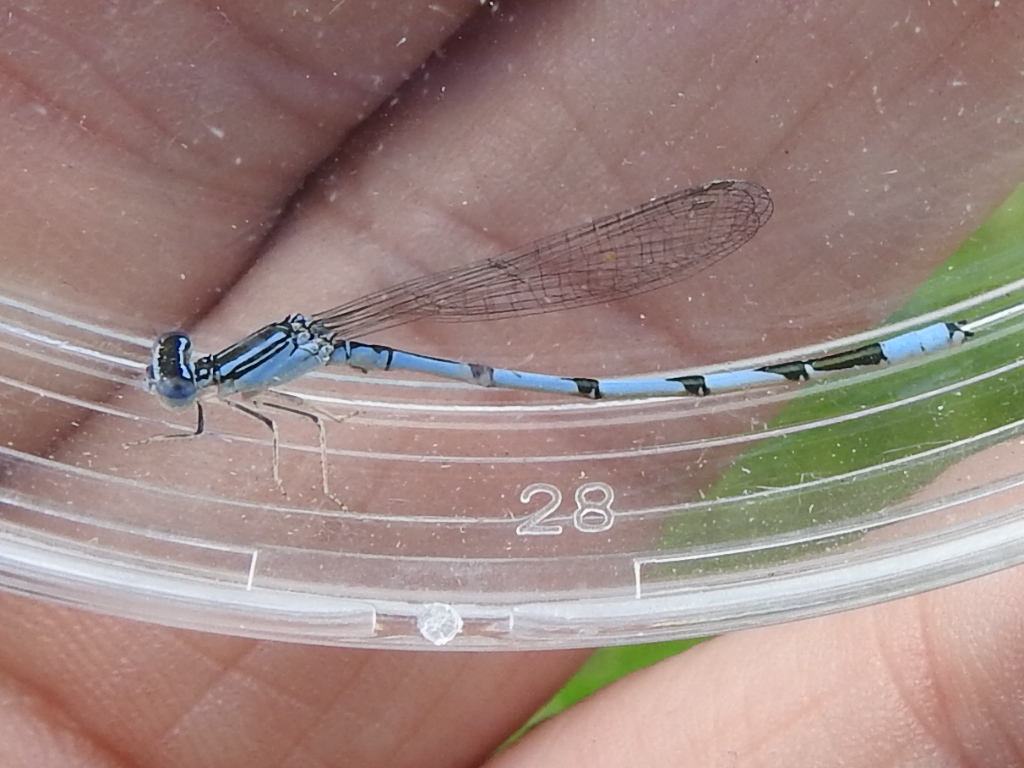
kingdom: Animalia
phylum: Arthropoda
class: Insecta
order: Odonata
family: Coenagrionidae
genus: Enallagma
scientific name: Enallagma basidens
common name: Double-striped bluet
